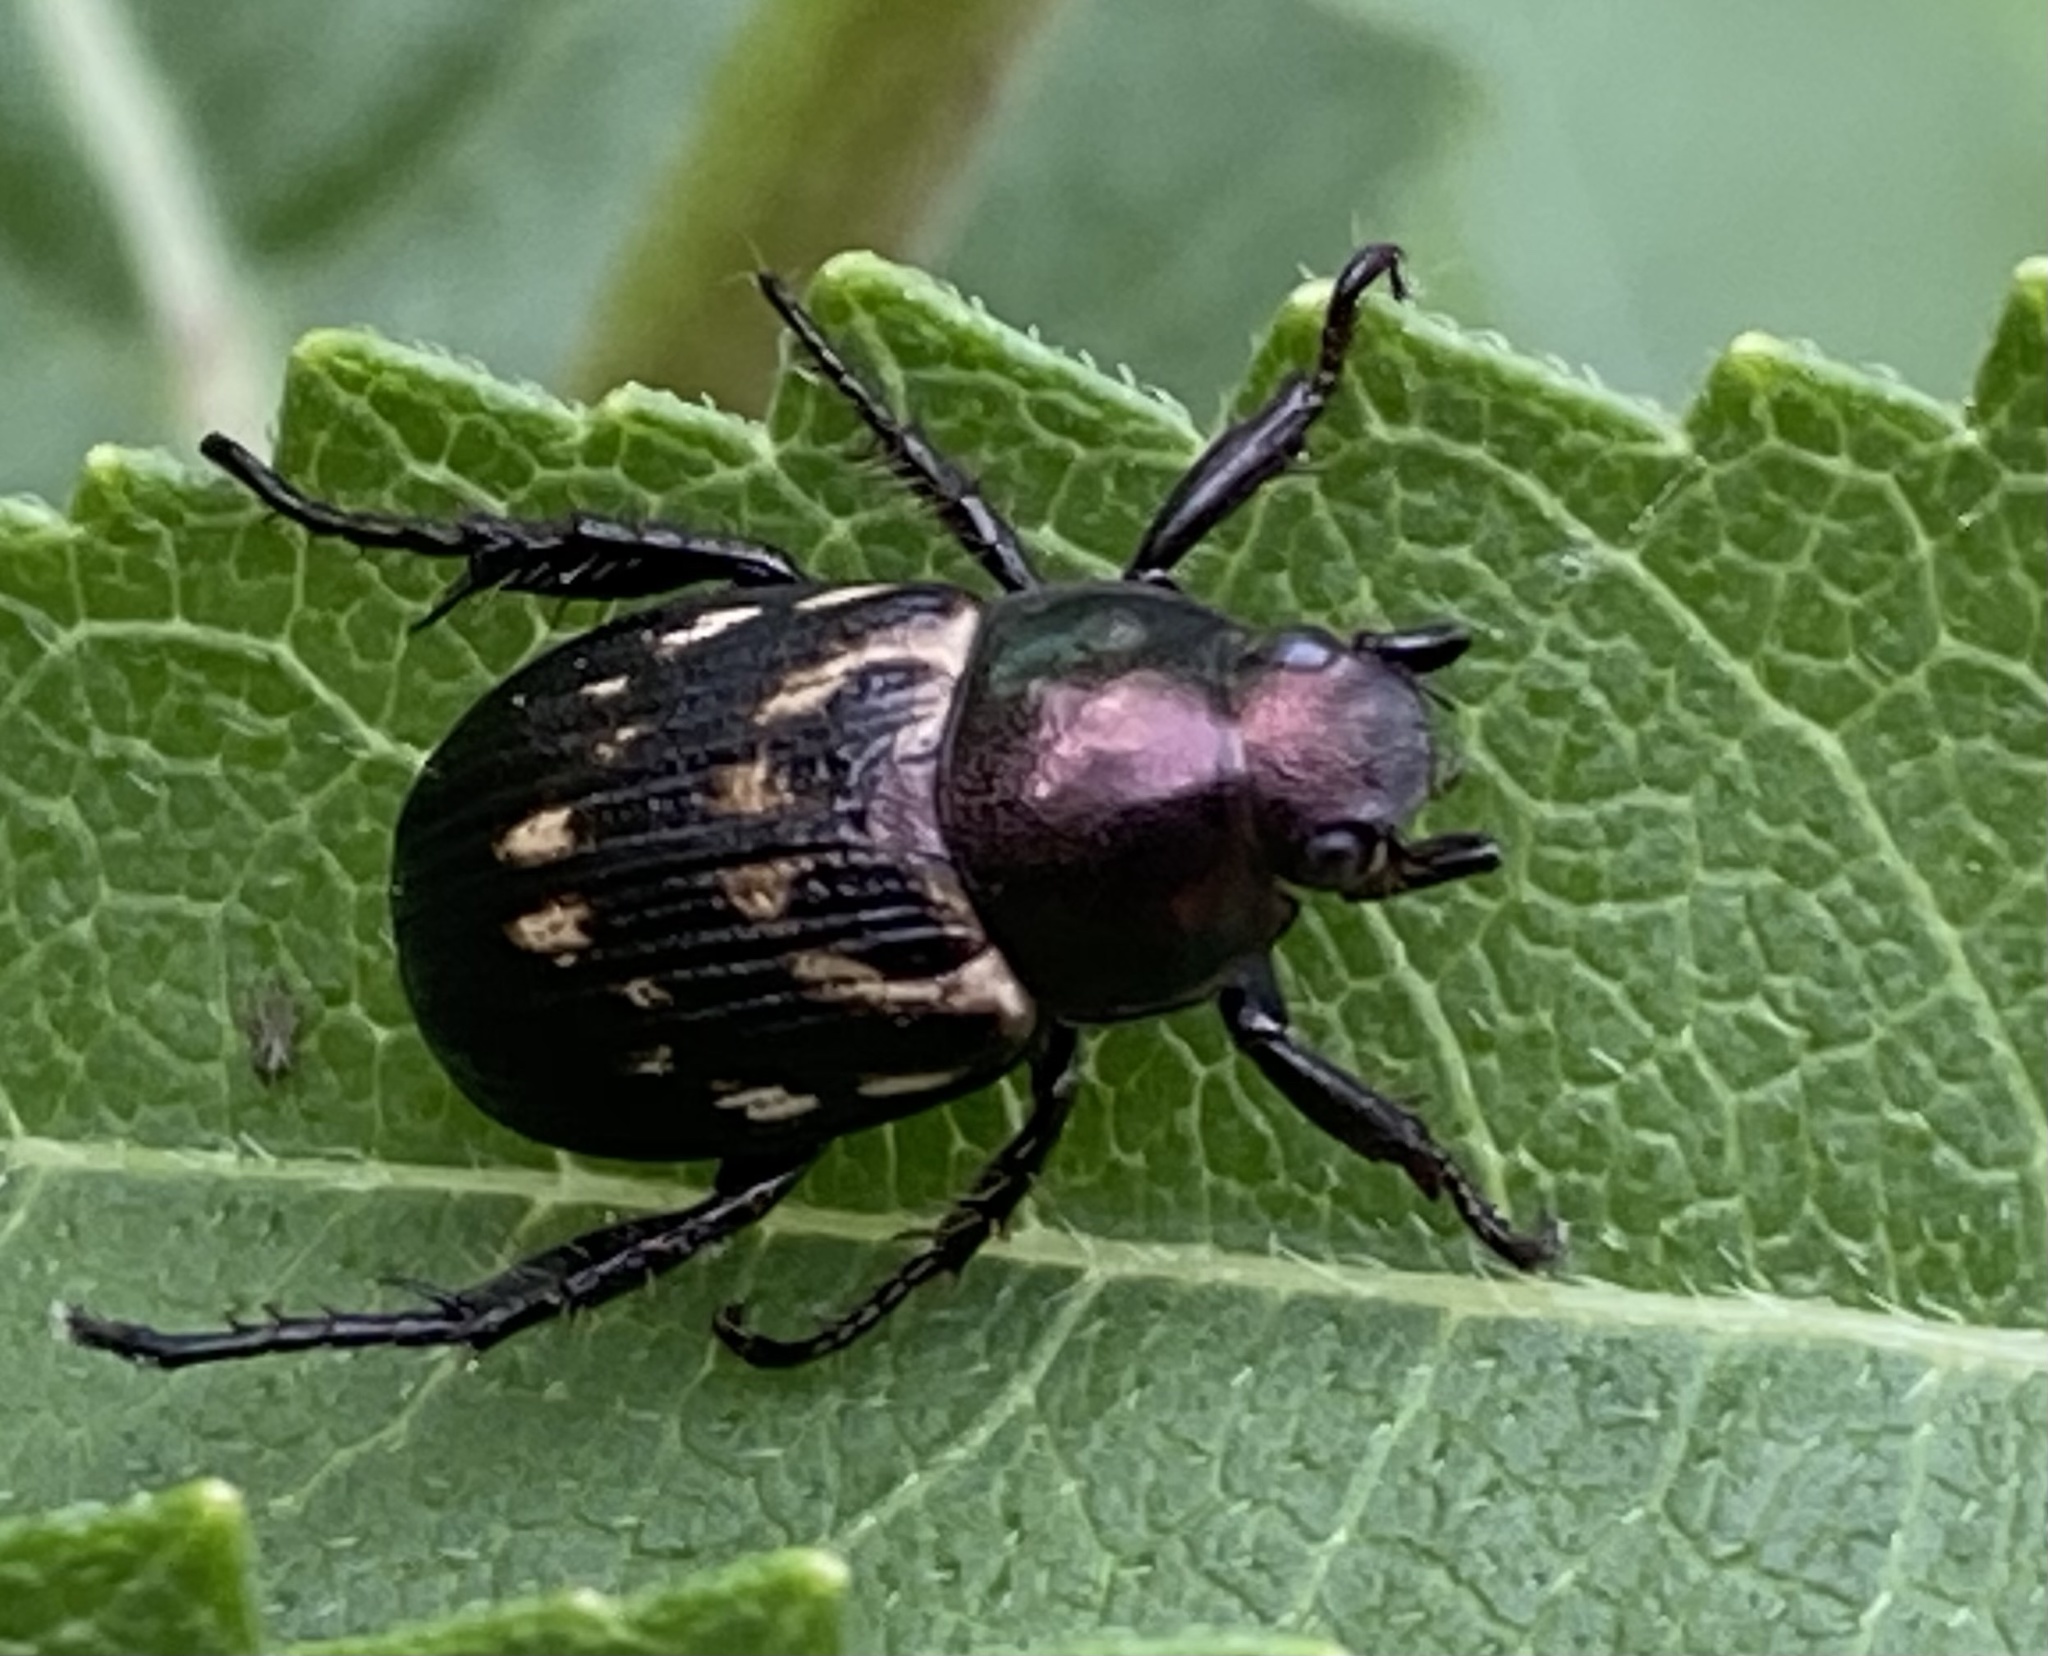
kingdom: Animalia
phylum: Arthropoda
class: Insecta
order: Coleoptera
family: Scarabaeidae
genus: Exomala
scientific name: Exomala orientalis
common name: Oriental beetle
